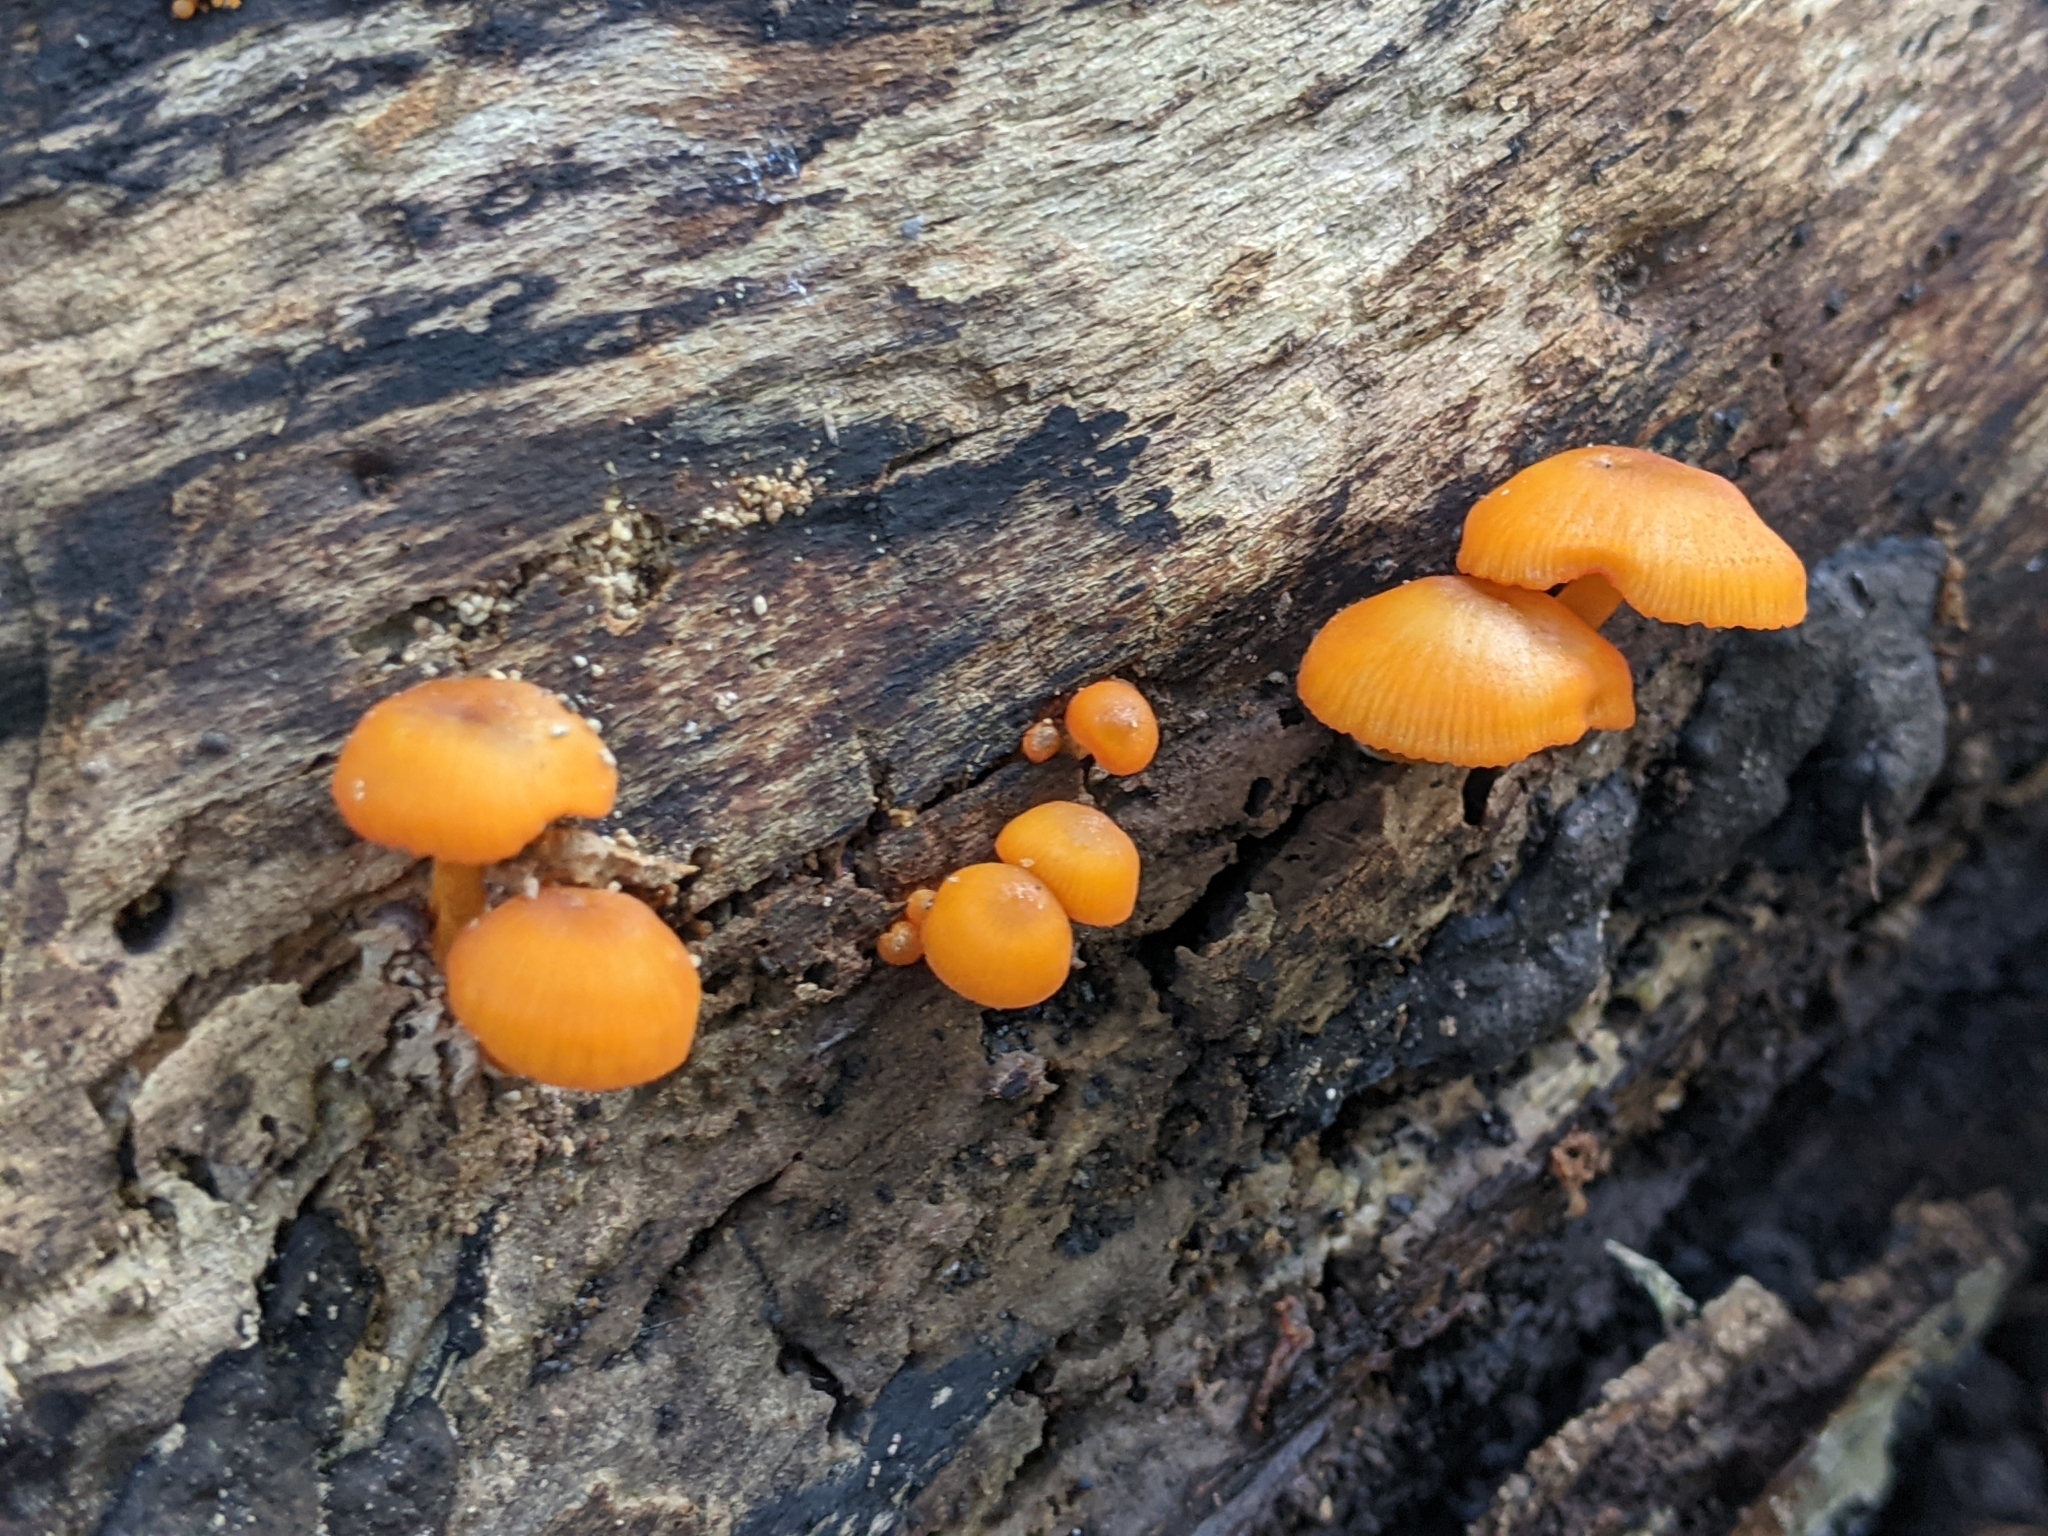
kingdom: Fungi
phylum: Basidiomycota
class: Agaricomycetes
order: Agaricales
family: Mycenaceae
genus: Mycena
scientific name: Mycena leaiana
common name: Orange mycena
